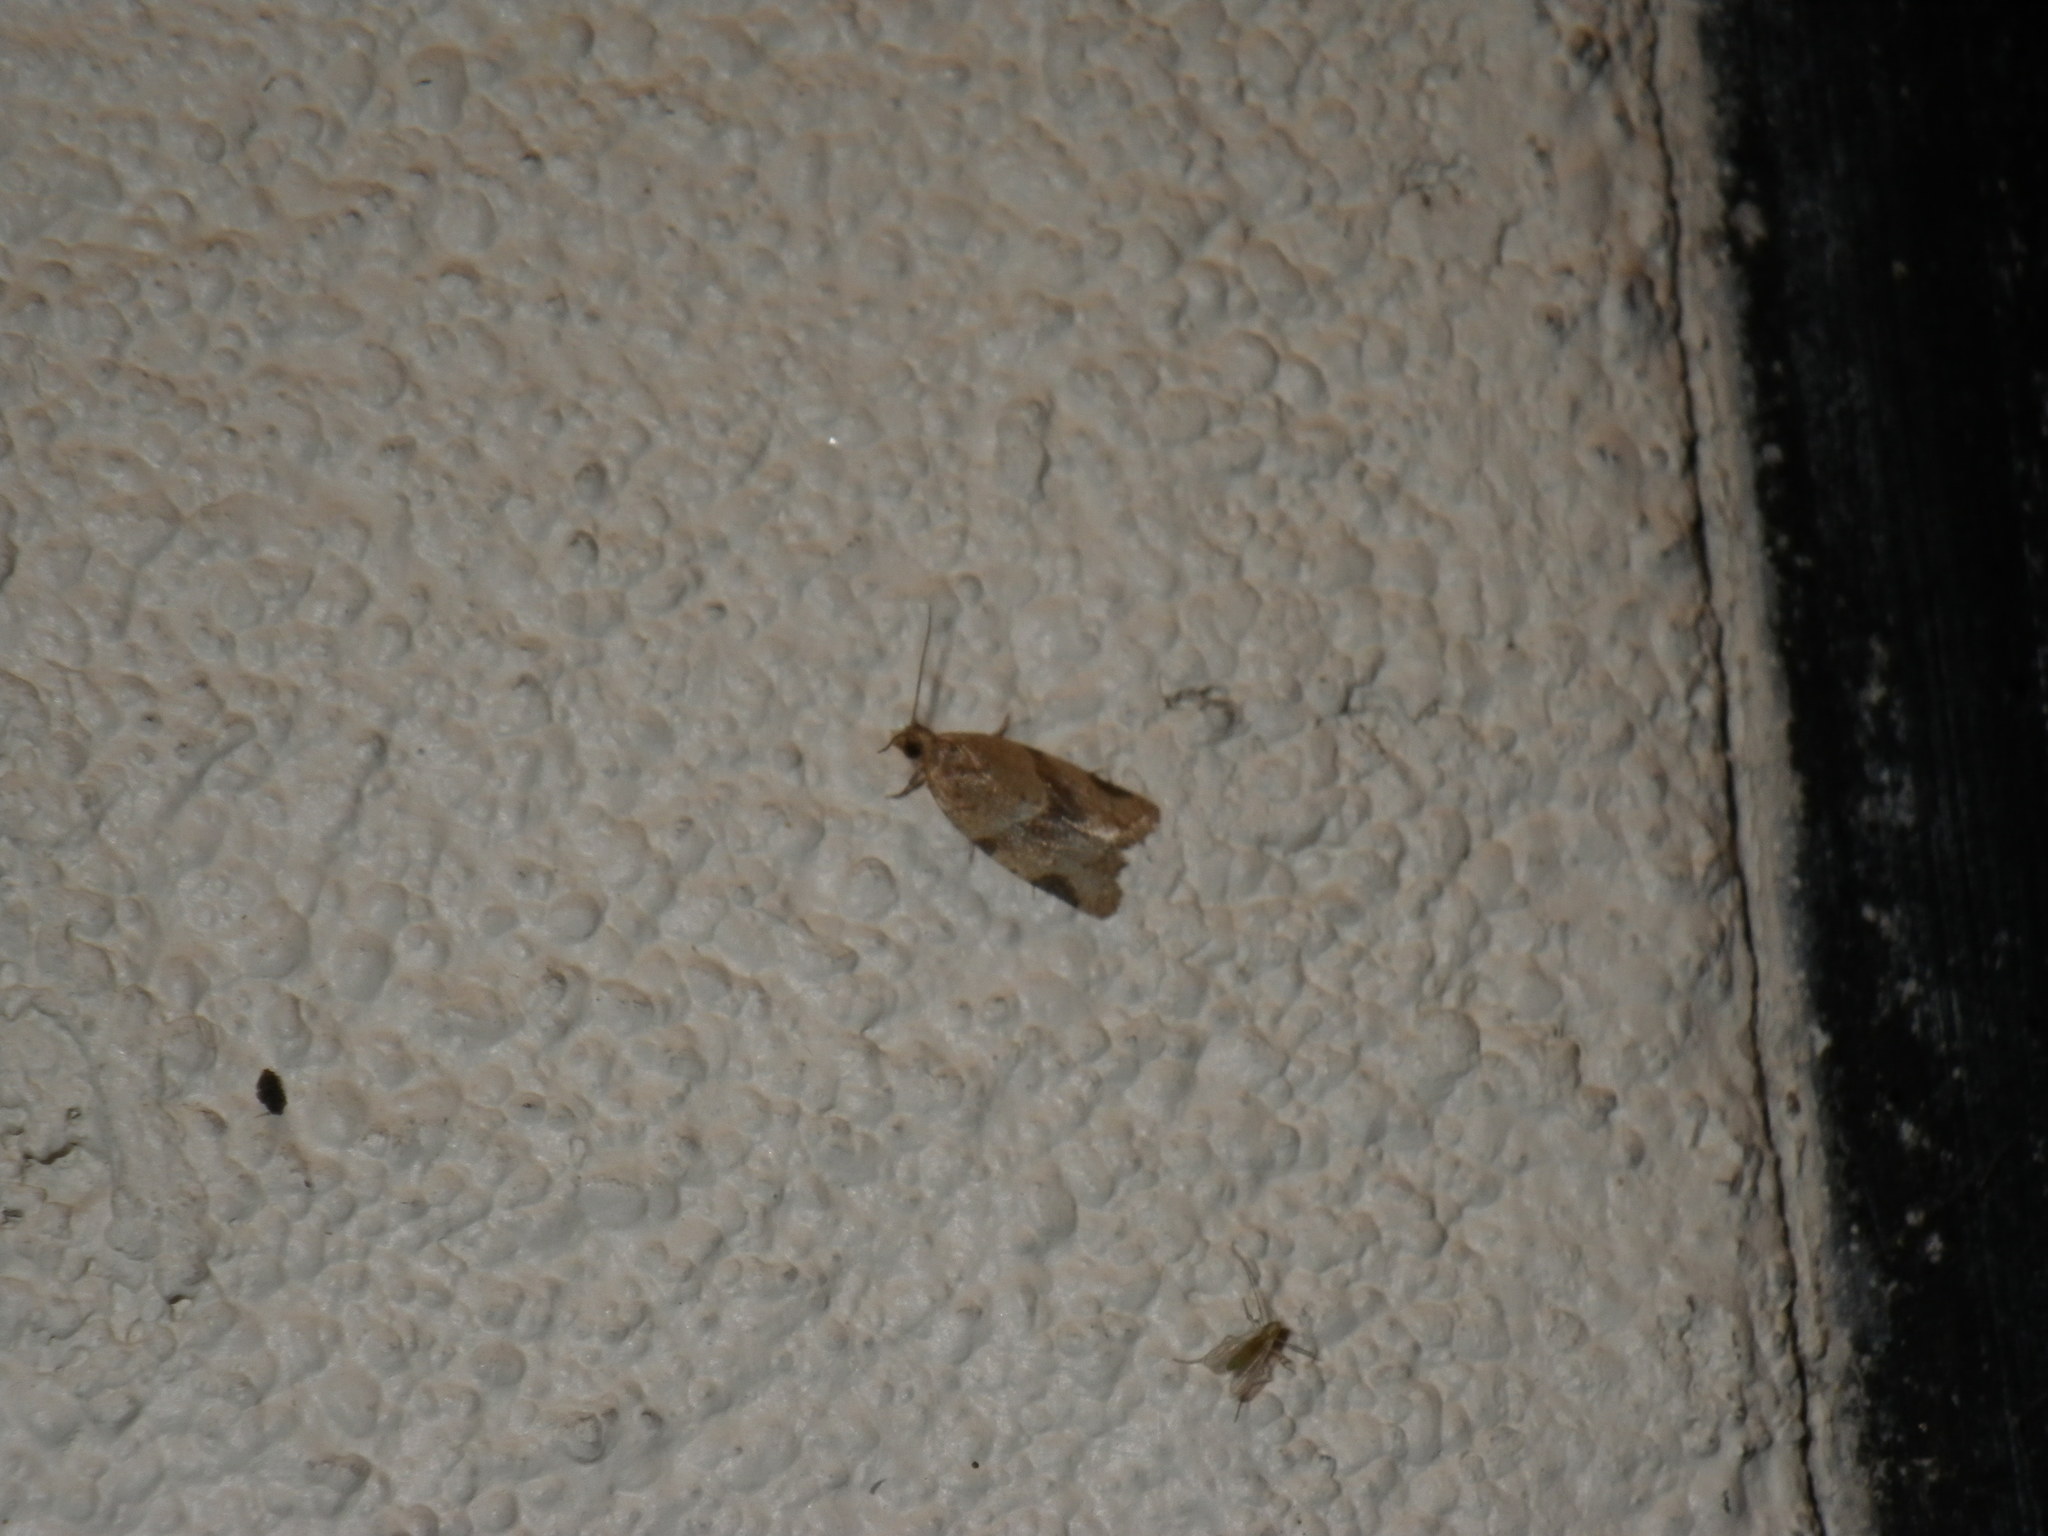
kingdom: Animalia
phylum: Arthropoda
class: Insecta
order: Lepidoptera
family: Tortricidae
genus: Clepsis
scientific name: Clepsis peritana
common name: Garden tortrix
